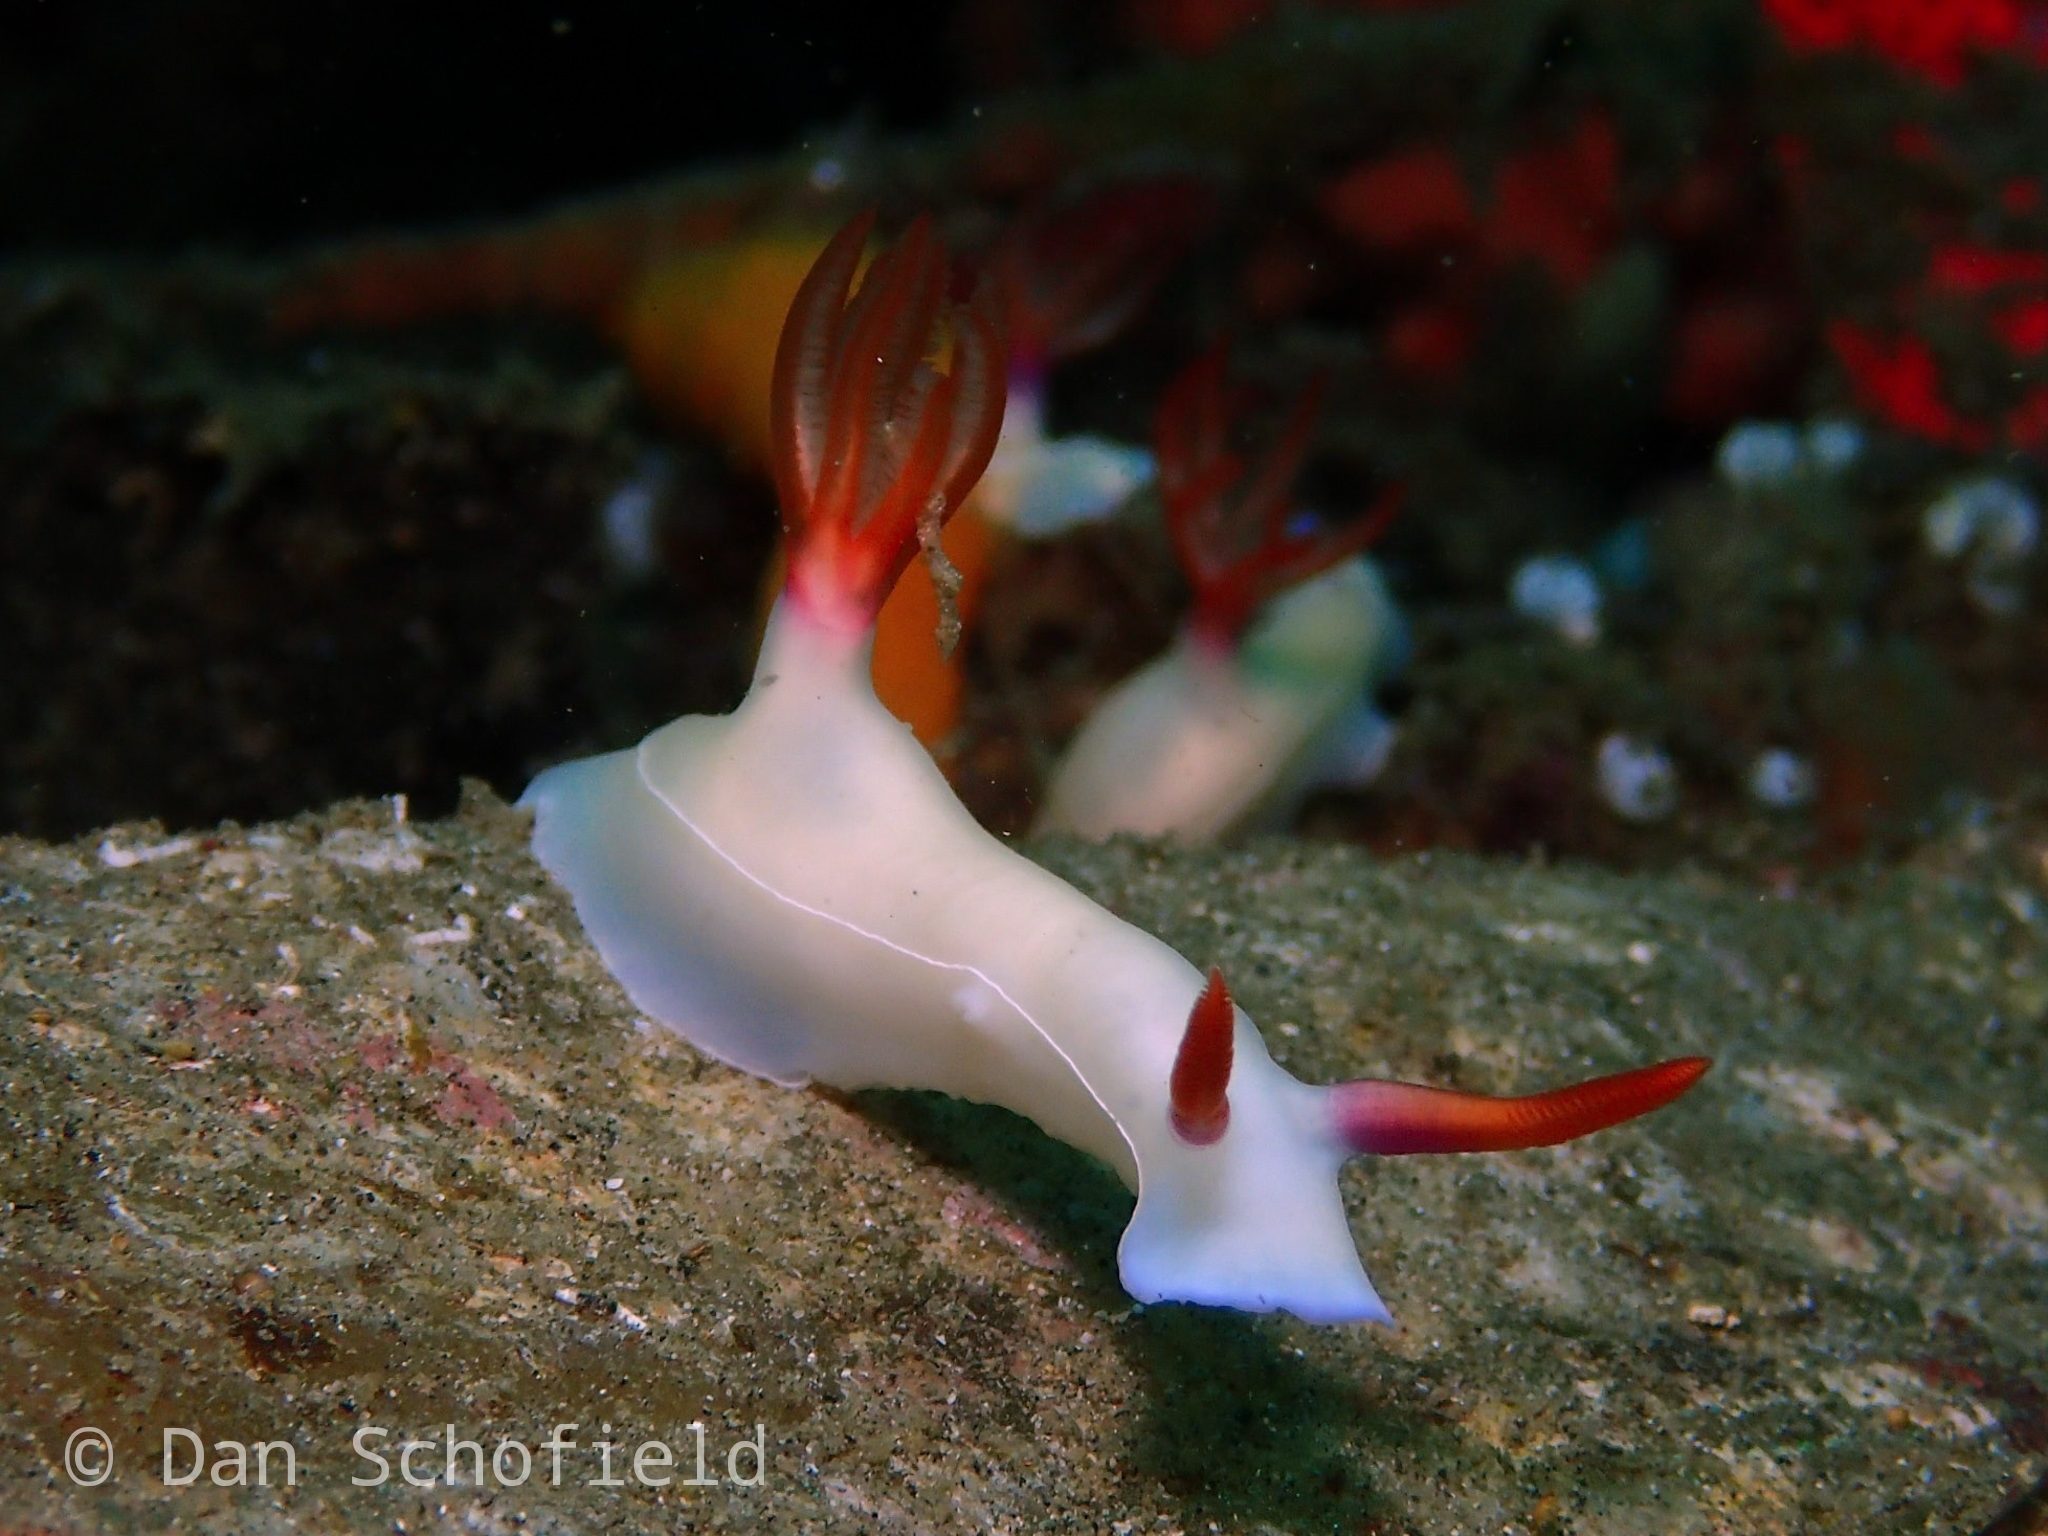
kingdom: Animalia
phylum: Mollusca
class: Gastropoda
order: Nudibranchia
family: Chromodorididae
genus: Hypselodoris
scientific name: Hypselodoris bullockii
